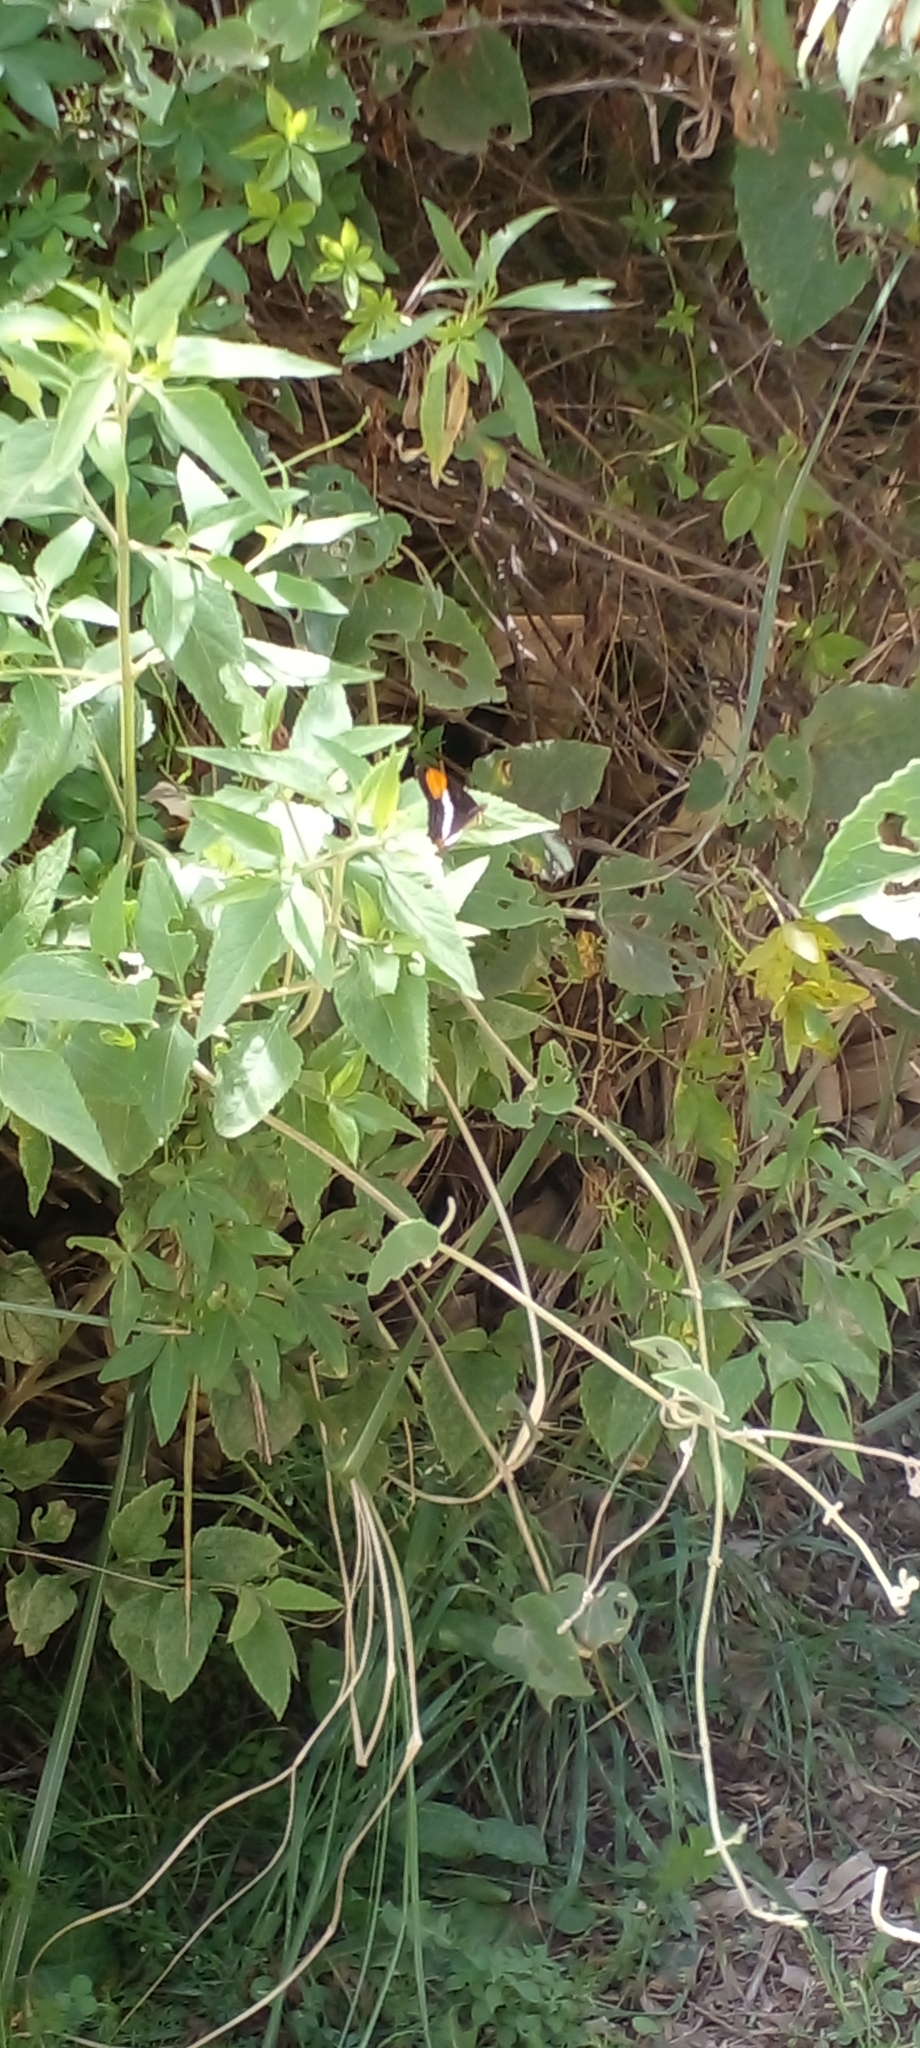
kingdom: Animalia
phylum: Arthropoda
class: Insecta
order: Lepidoptera
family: Nymphalidae
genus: Limenitis
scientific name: Limenitis syma
